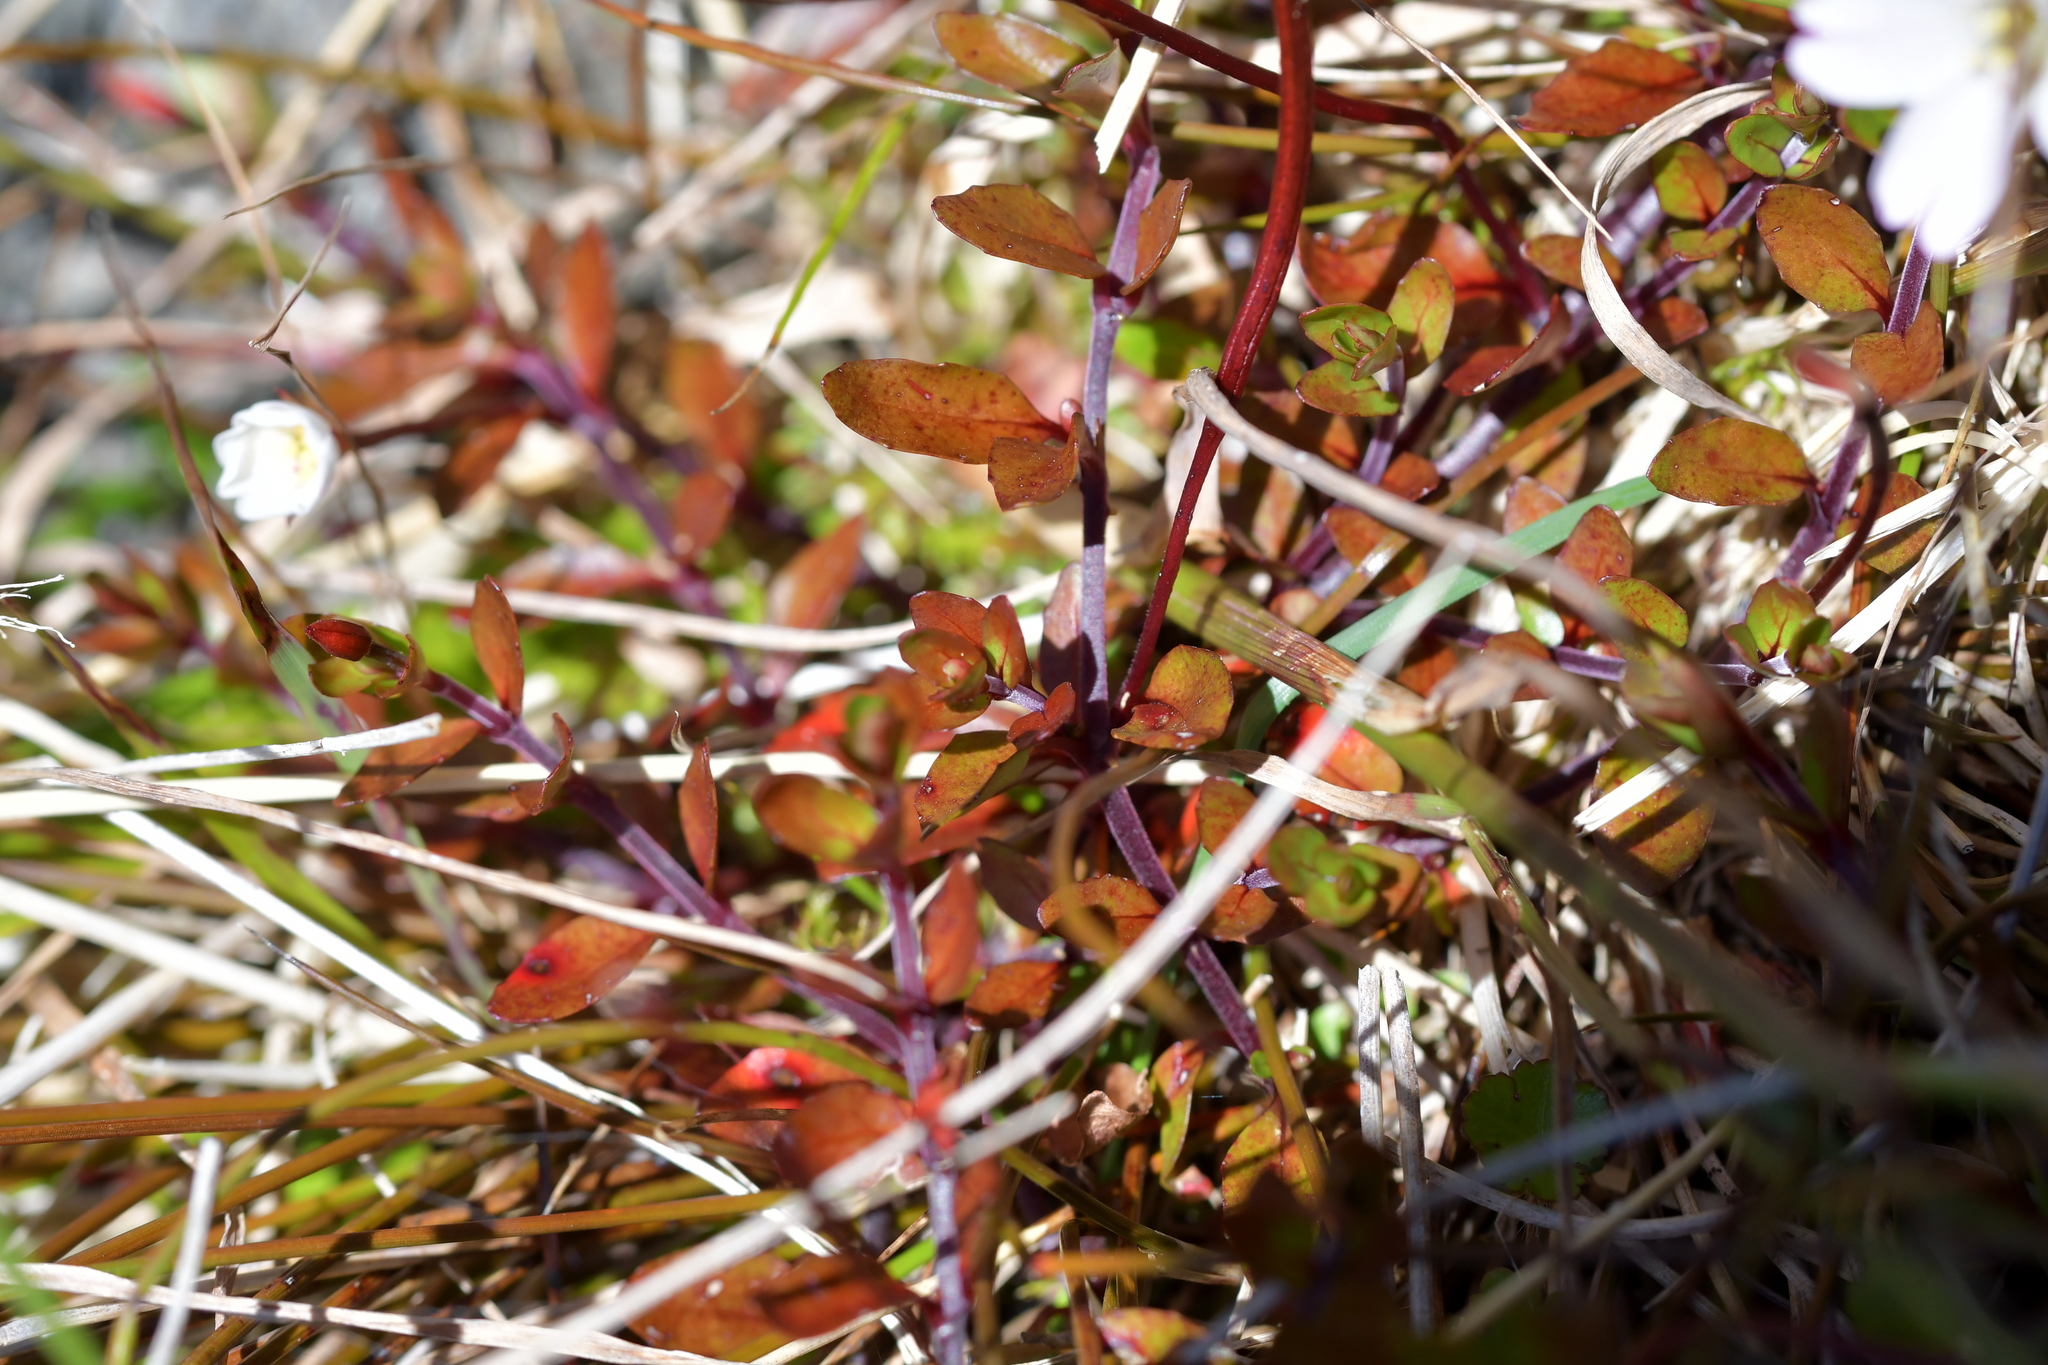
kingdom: Plantae
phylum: Tracheophyta
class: Magnoliopsida
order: Myrtales
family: Onagraceae
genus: Epilobium
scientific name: Epilobium macropus
